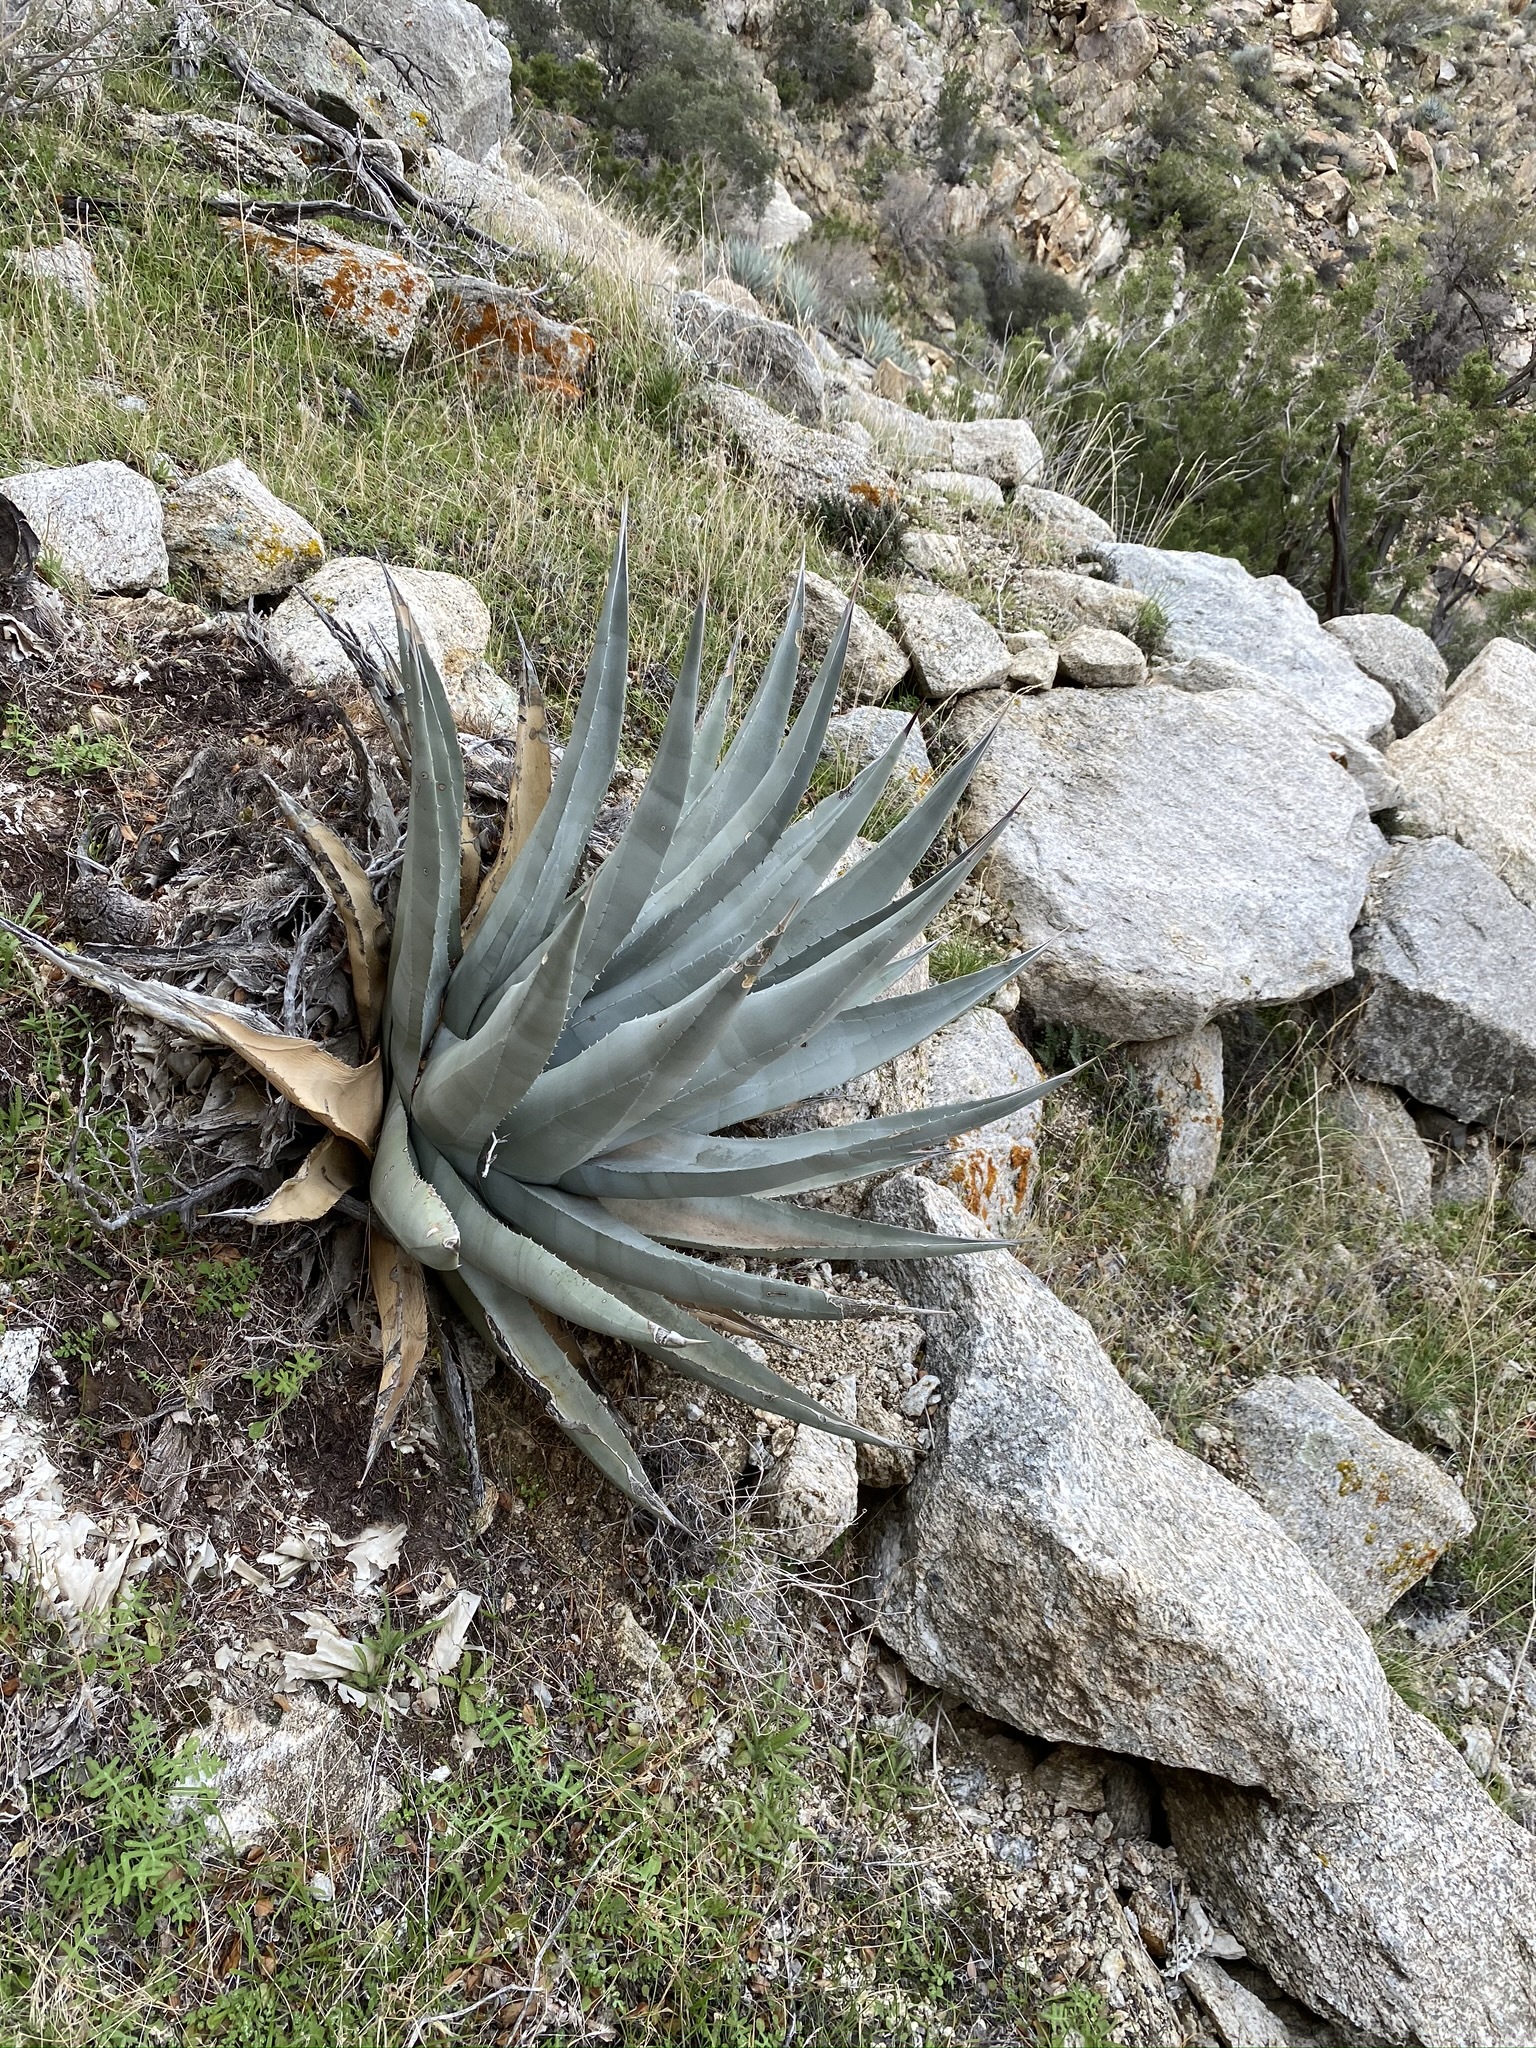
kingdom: Plantae
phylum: Tracheophyta
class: Liliopsida
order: Asparagales
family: Asparagaceae
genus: Agave
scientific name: Agave deserti
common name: Desert agave
